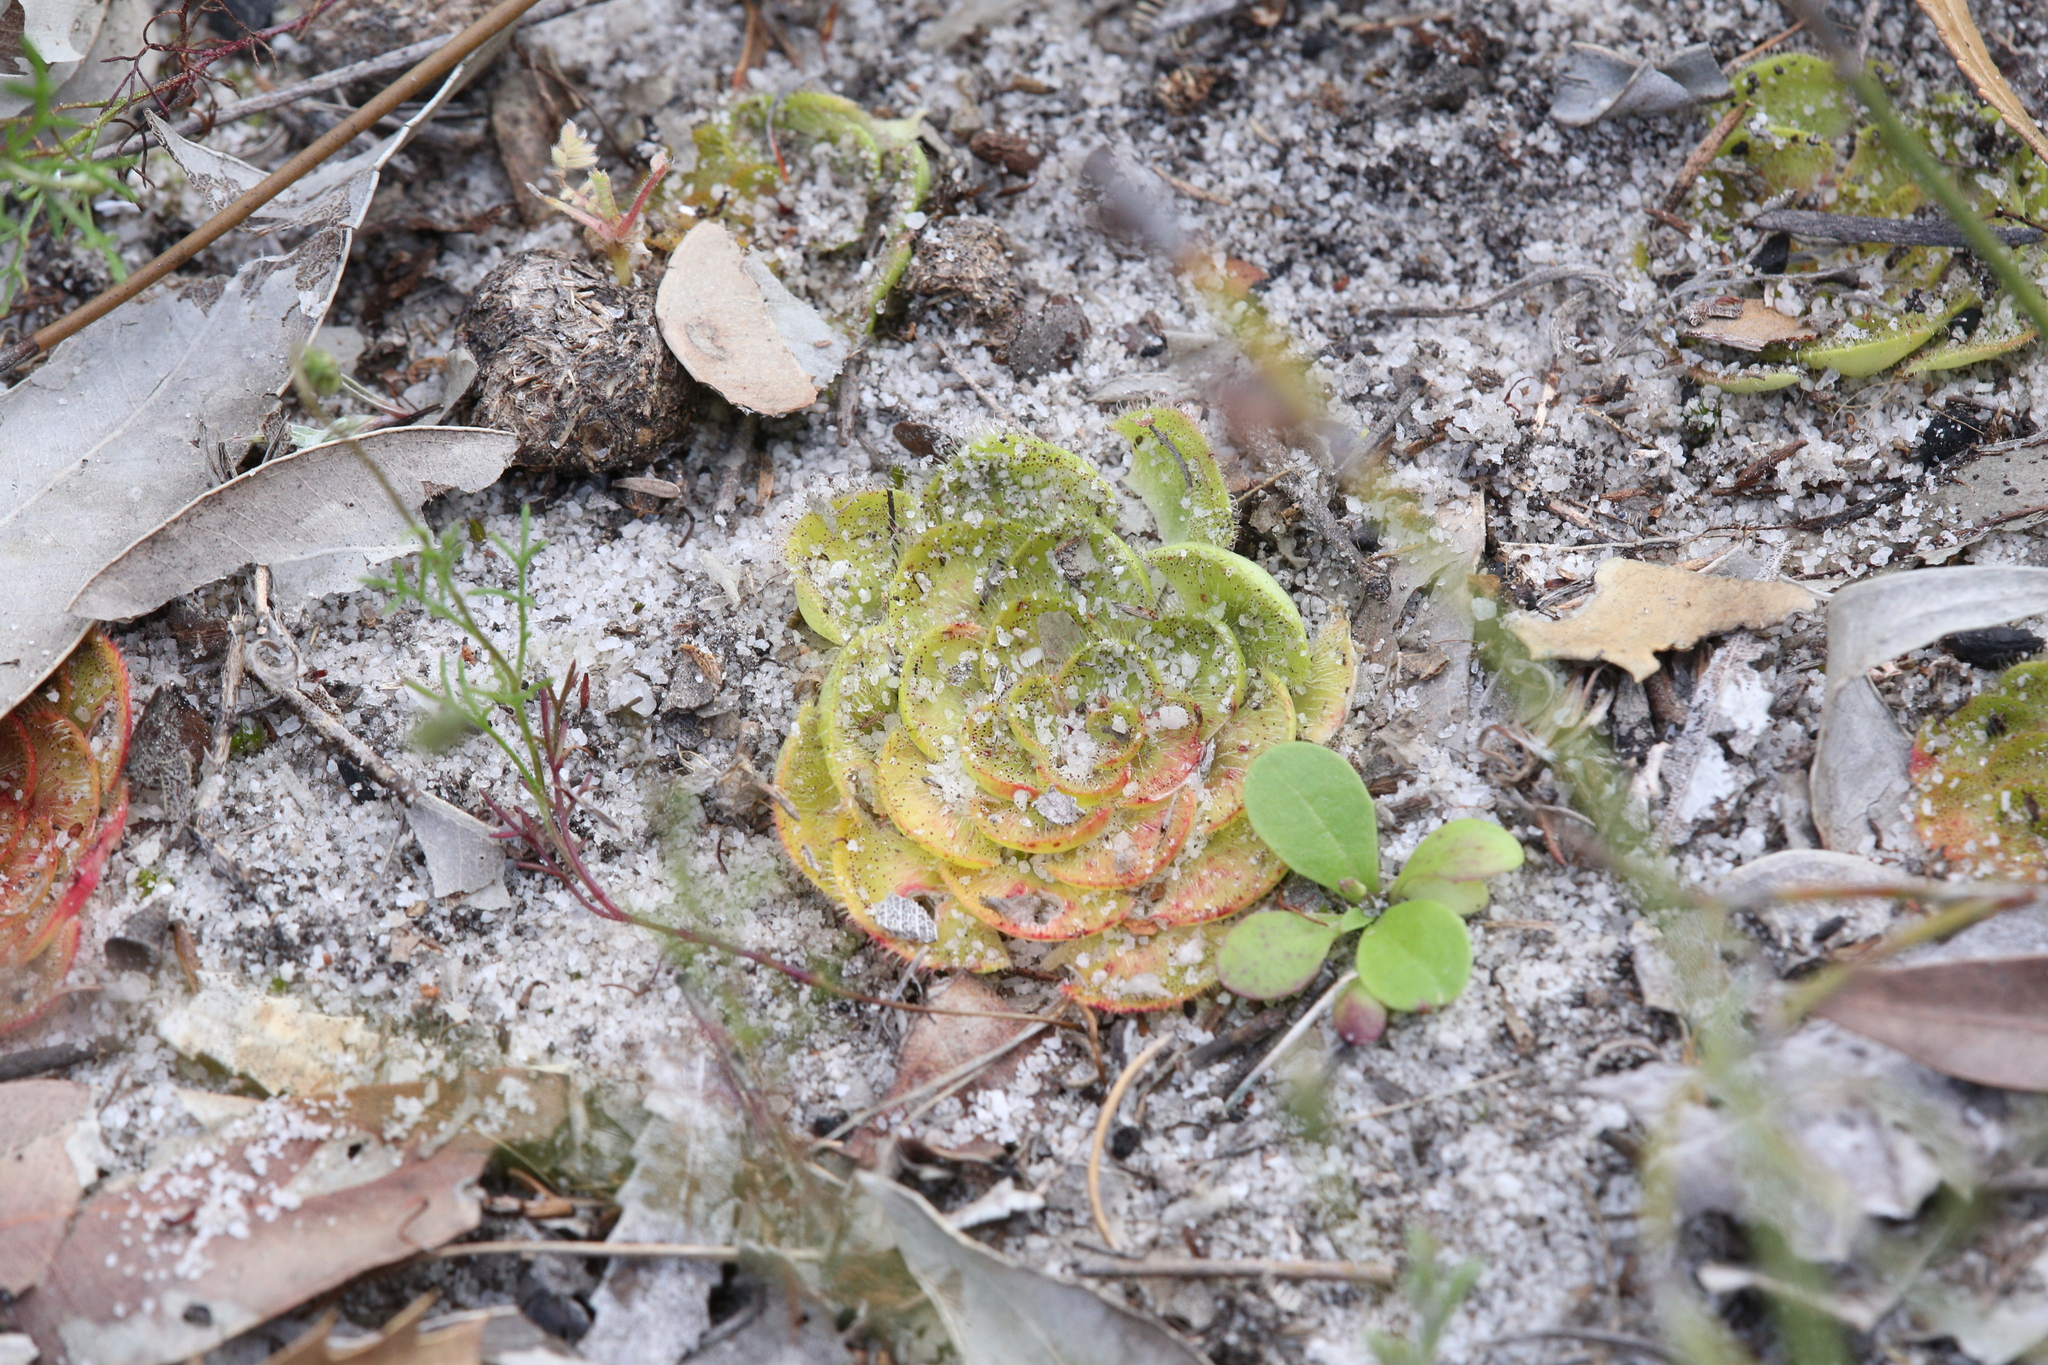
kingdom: Plantae
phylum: Tracheophyta
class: Magnoliopsida
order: Caryophyllales
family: Droseraceae
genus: Drosera
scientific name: Drosera zonaria
